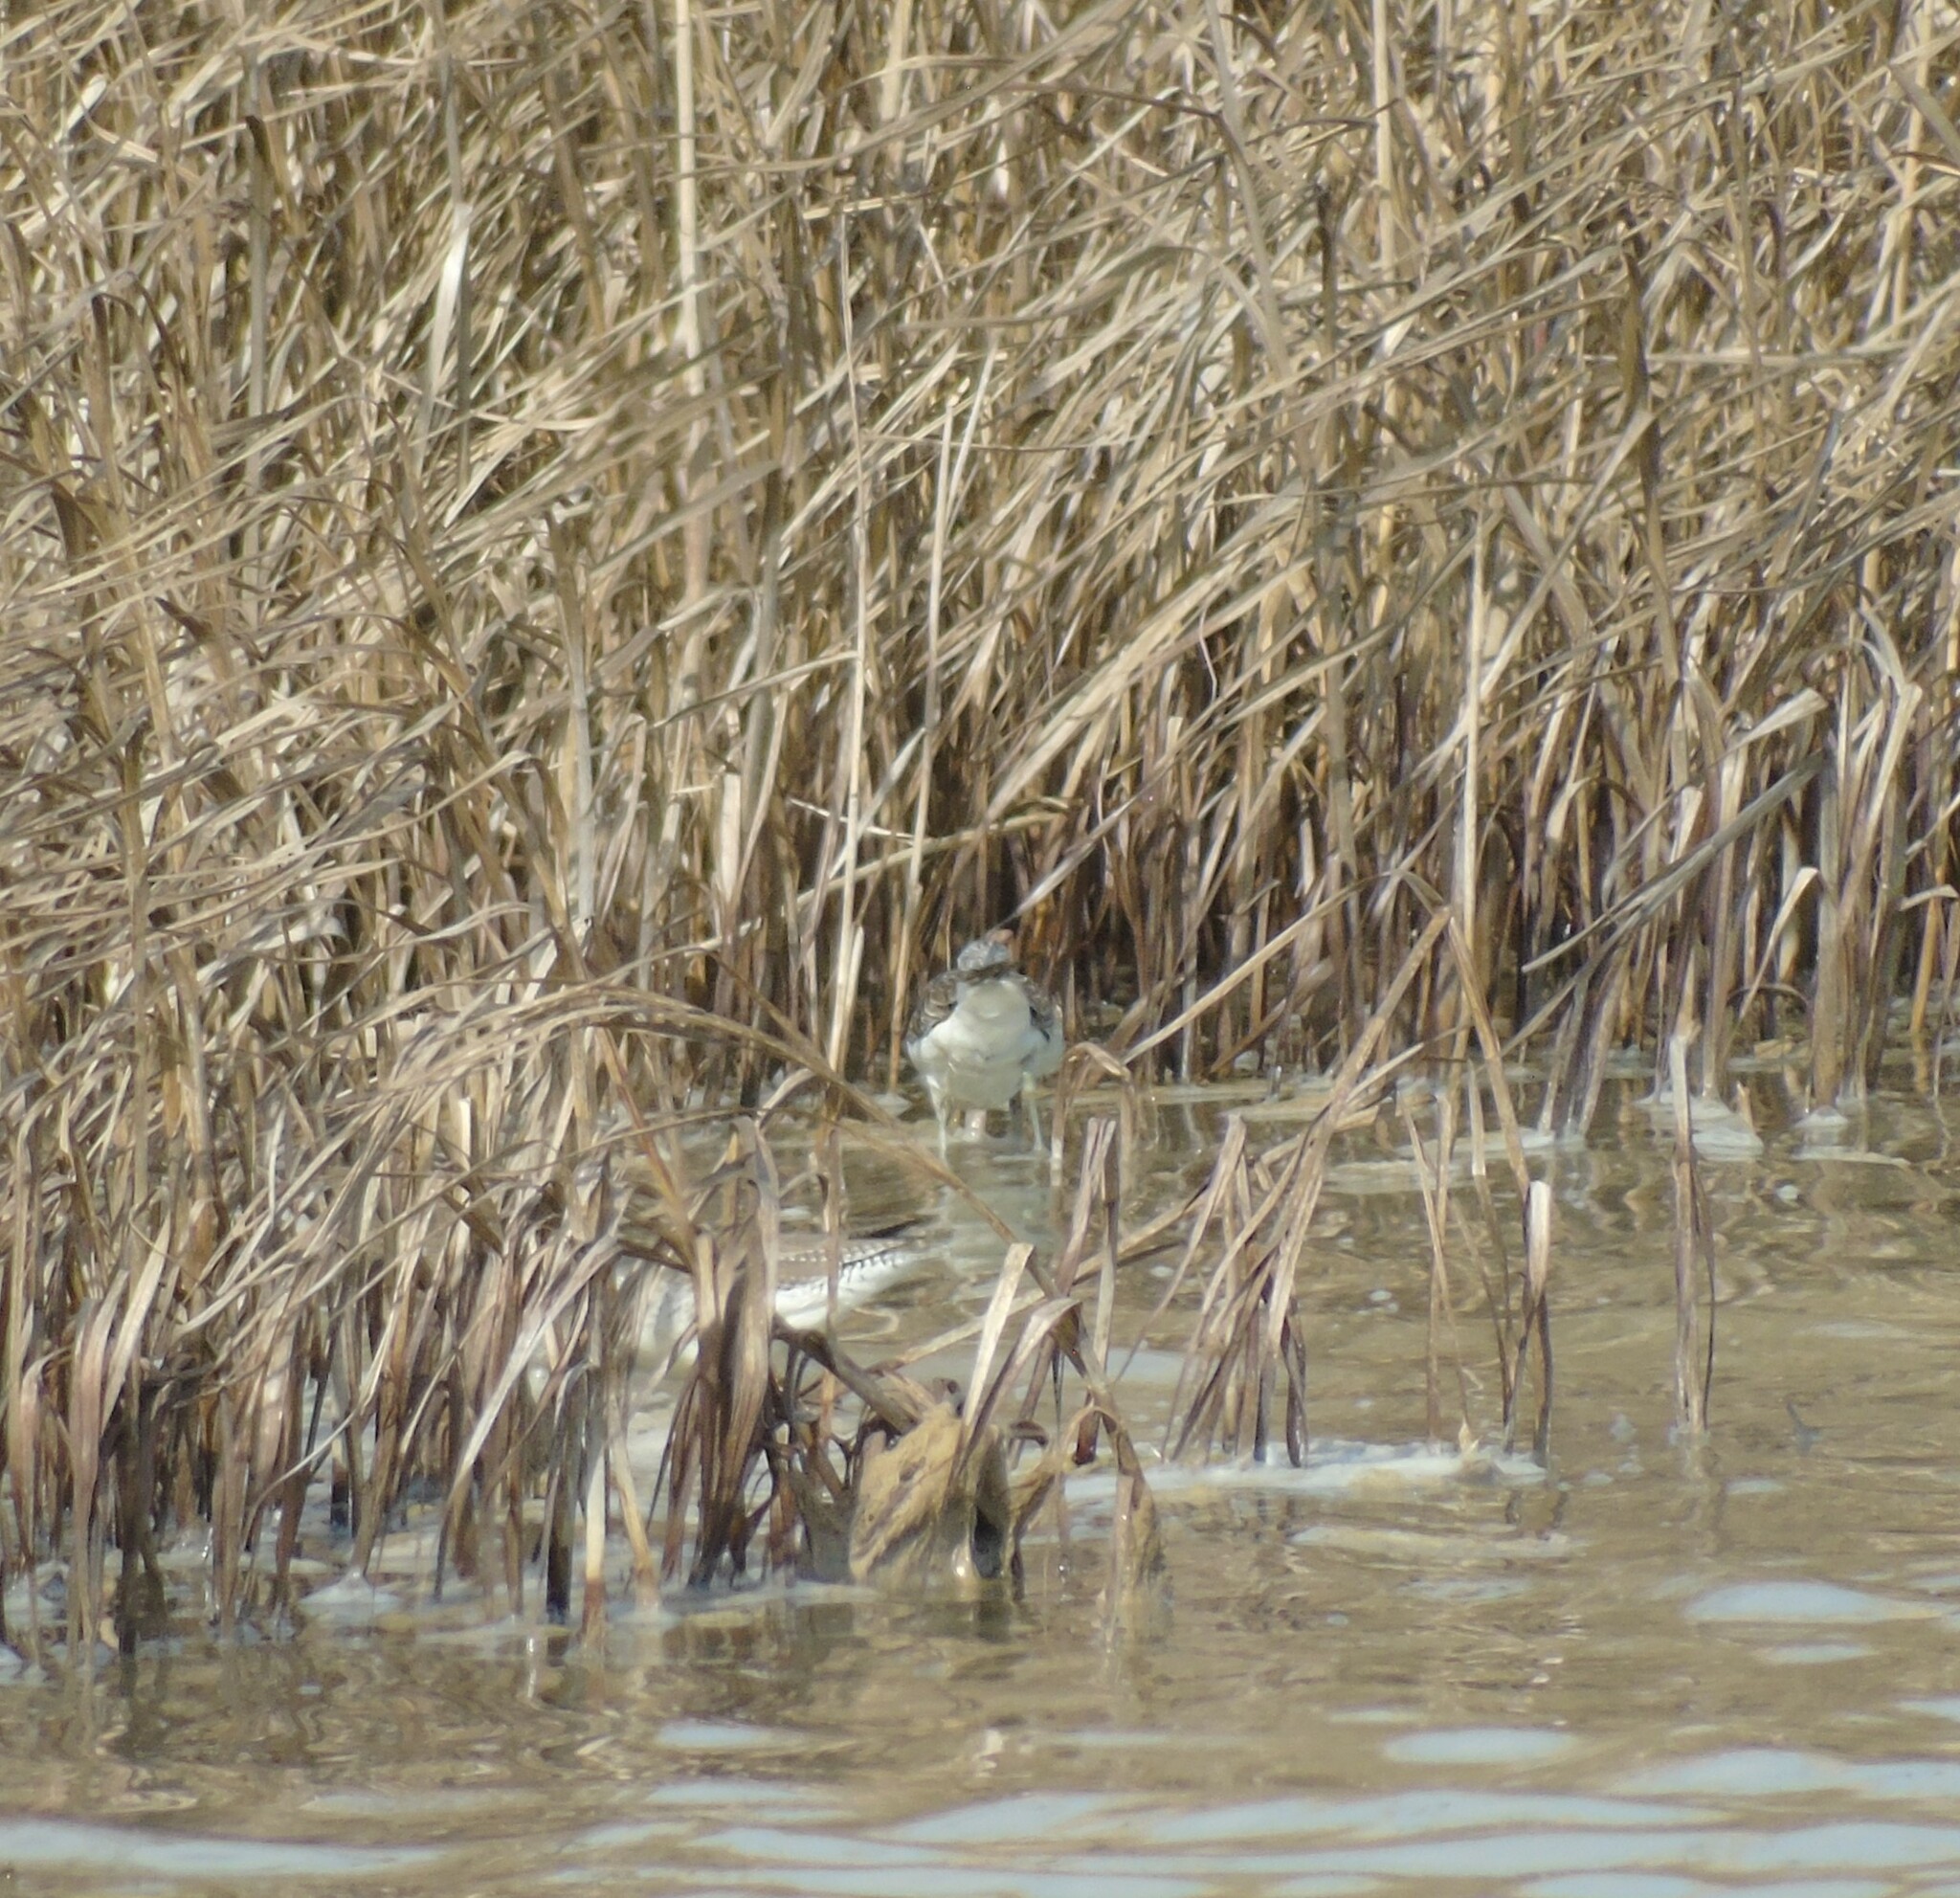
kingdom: Animalia
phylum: Chordata
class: Aves
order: Charadriiformes
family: Scolopacidae
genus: Tringa
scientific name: Tringa nebularia
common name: Common greenshank
